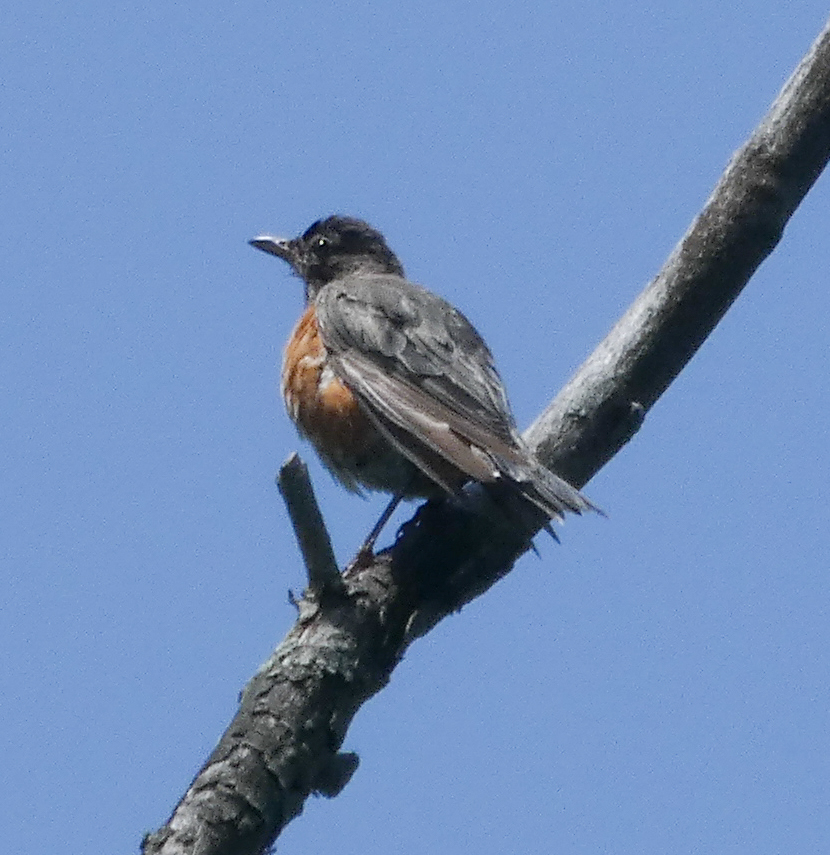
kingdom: Animalia
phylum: Chordata
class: Aves
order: Passeriformes
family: Turdidae
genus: Turdus
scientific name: Turdus migratorius
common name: American robin
